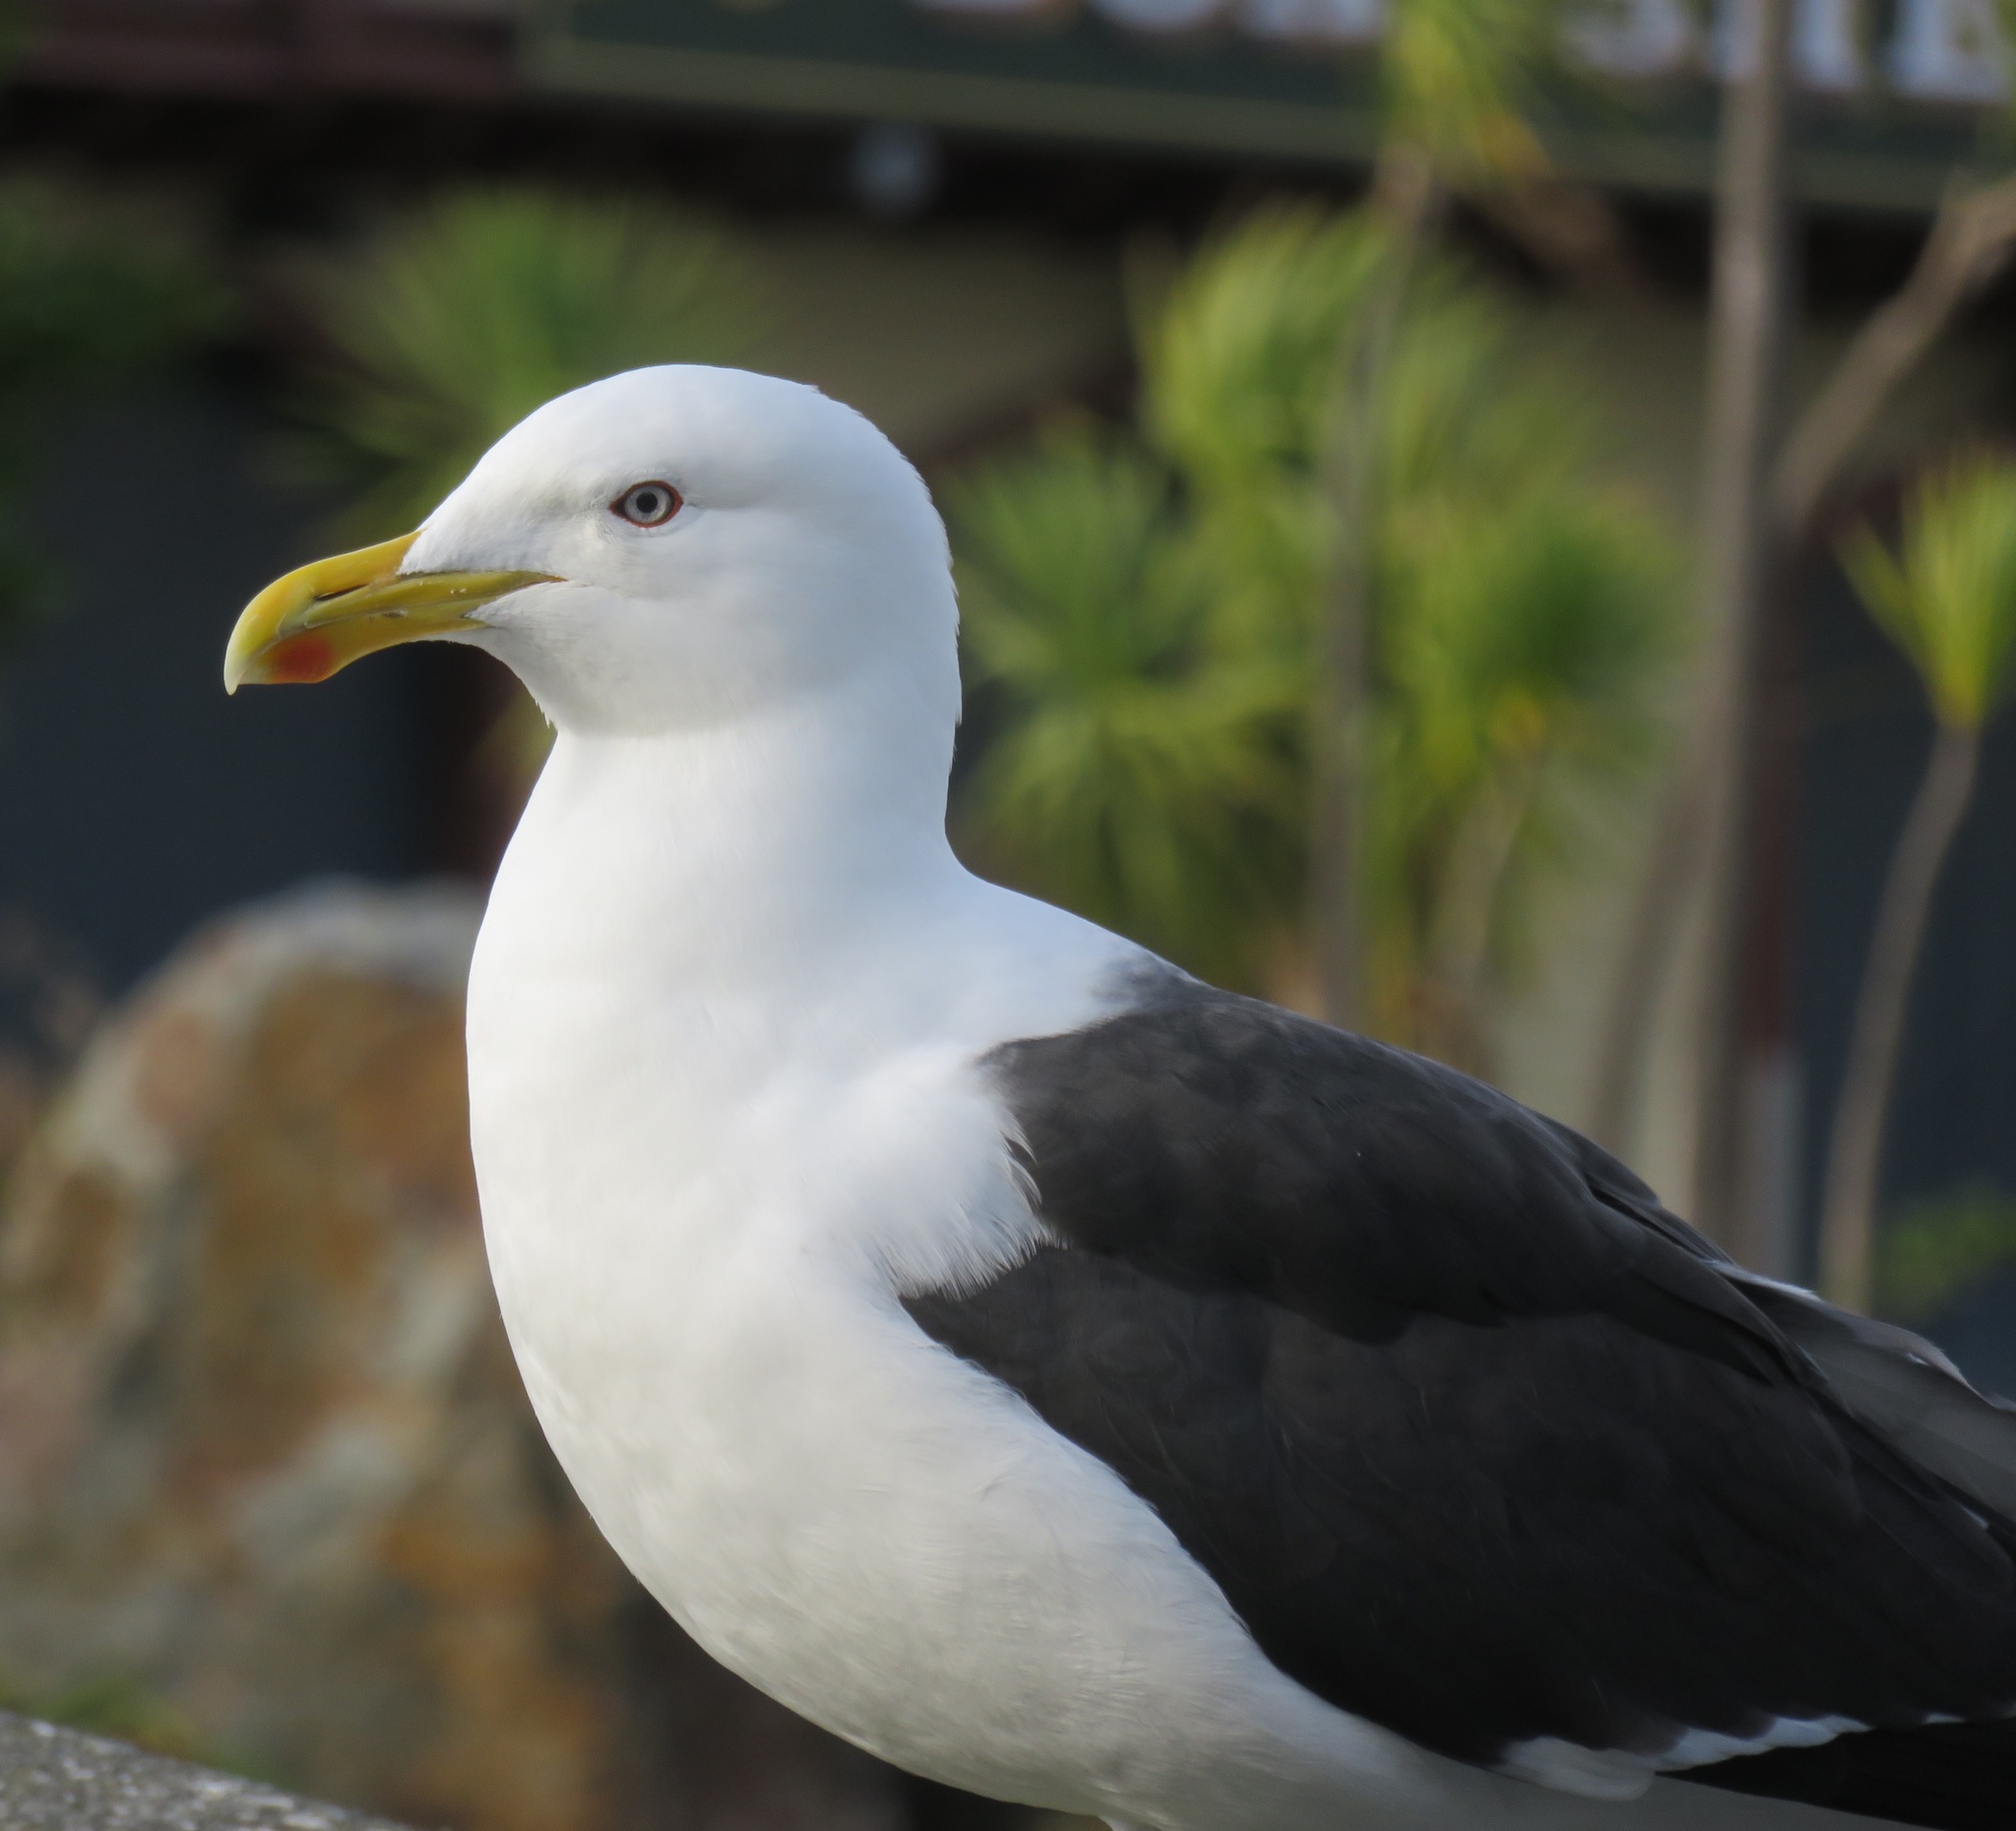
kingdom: Animalia
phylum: Chordata
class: Aves
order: Charadriiformes
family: Laridae
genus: Larus
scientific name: Larus dominicanus
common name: Kelp gull
